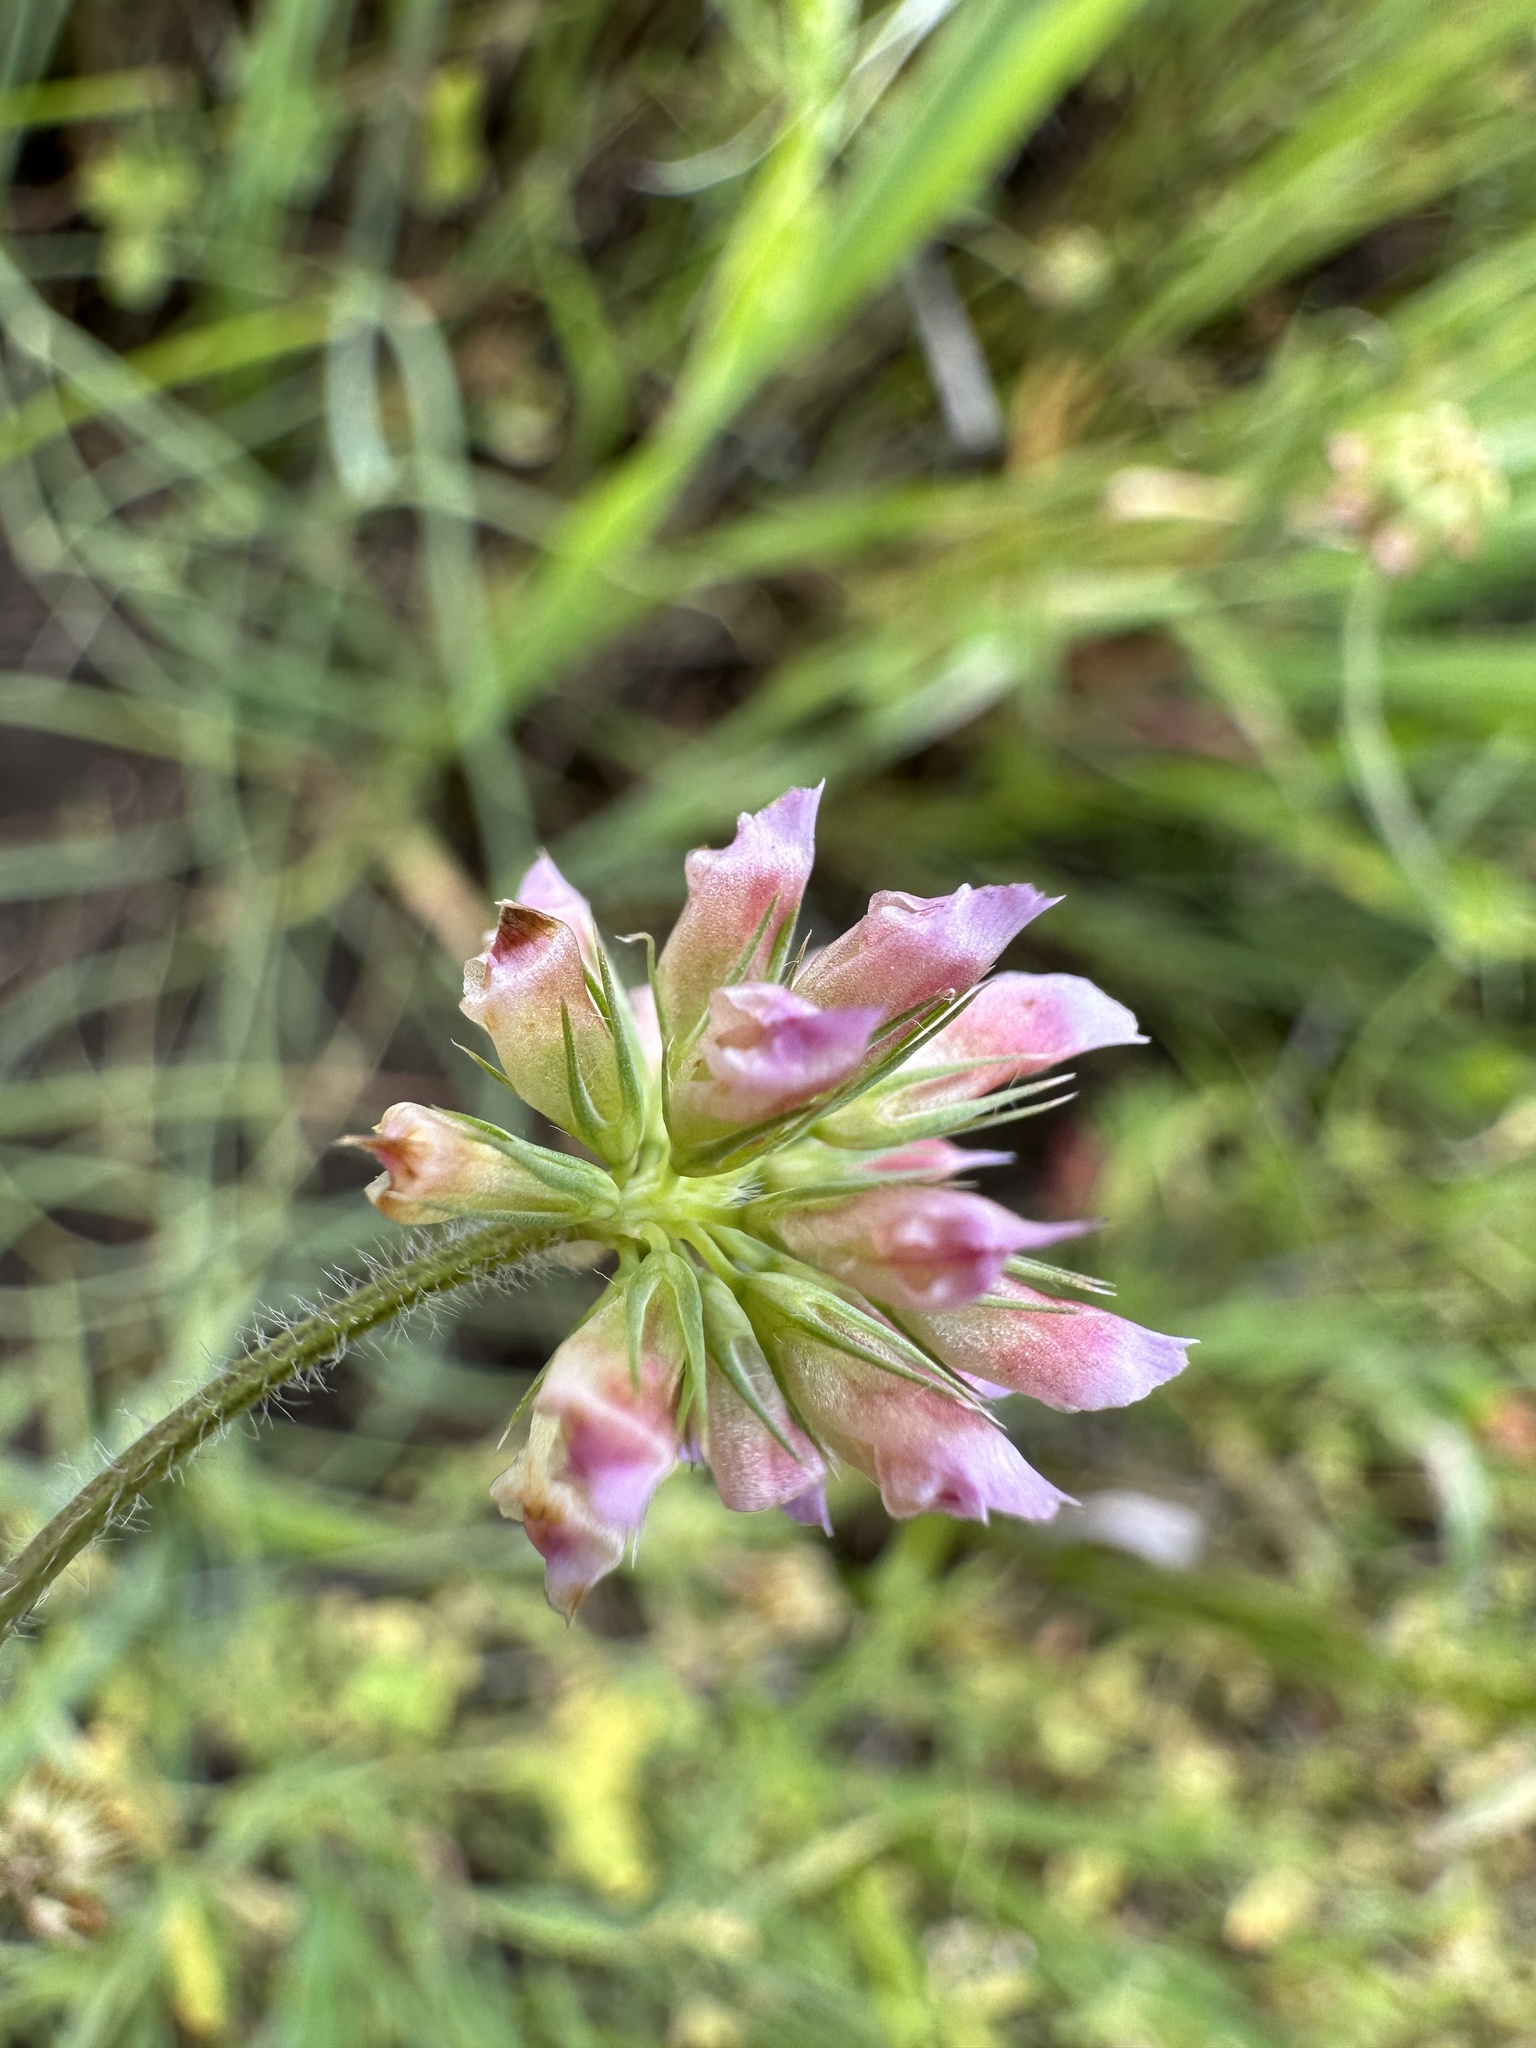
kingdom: Plantae
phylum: Tracheophyta
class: Magnoliopsida
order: Fabales
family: Fabaceae
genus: Trifolium
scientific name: Trifolium bifidum
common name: Notch-leaf clover
